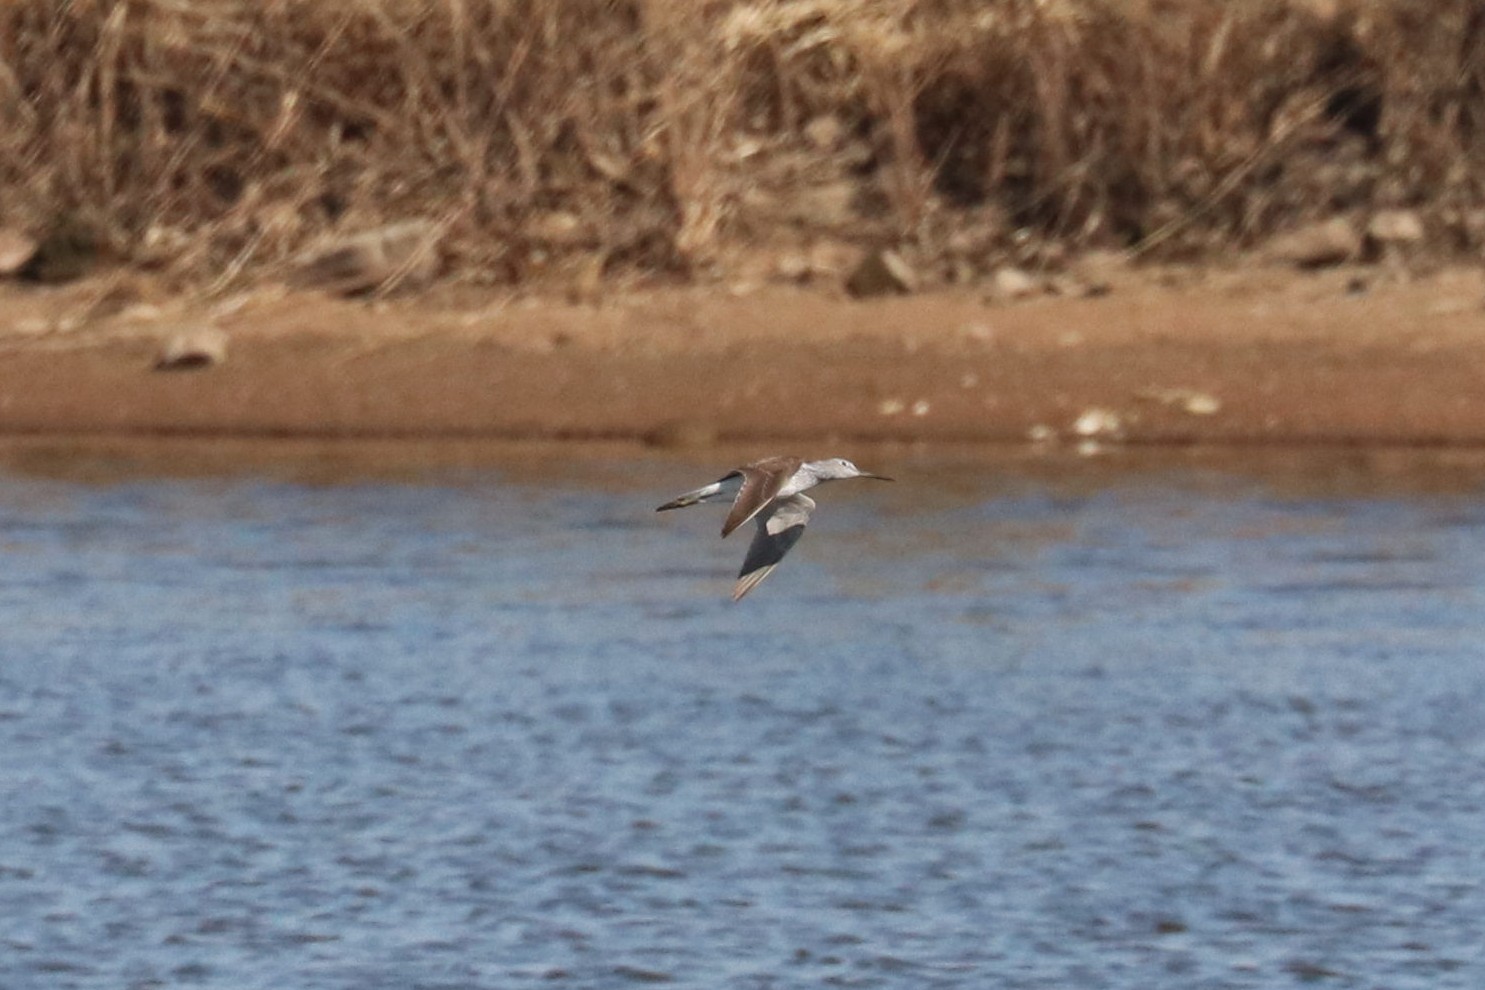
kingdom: Animalia
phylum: Chordata
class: Aves
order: Charadriiformes
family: Scolopacidae
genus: Tringa
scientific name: Tringa nebularia
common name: Common greenshank
